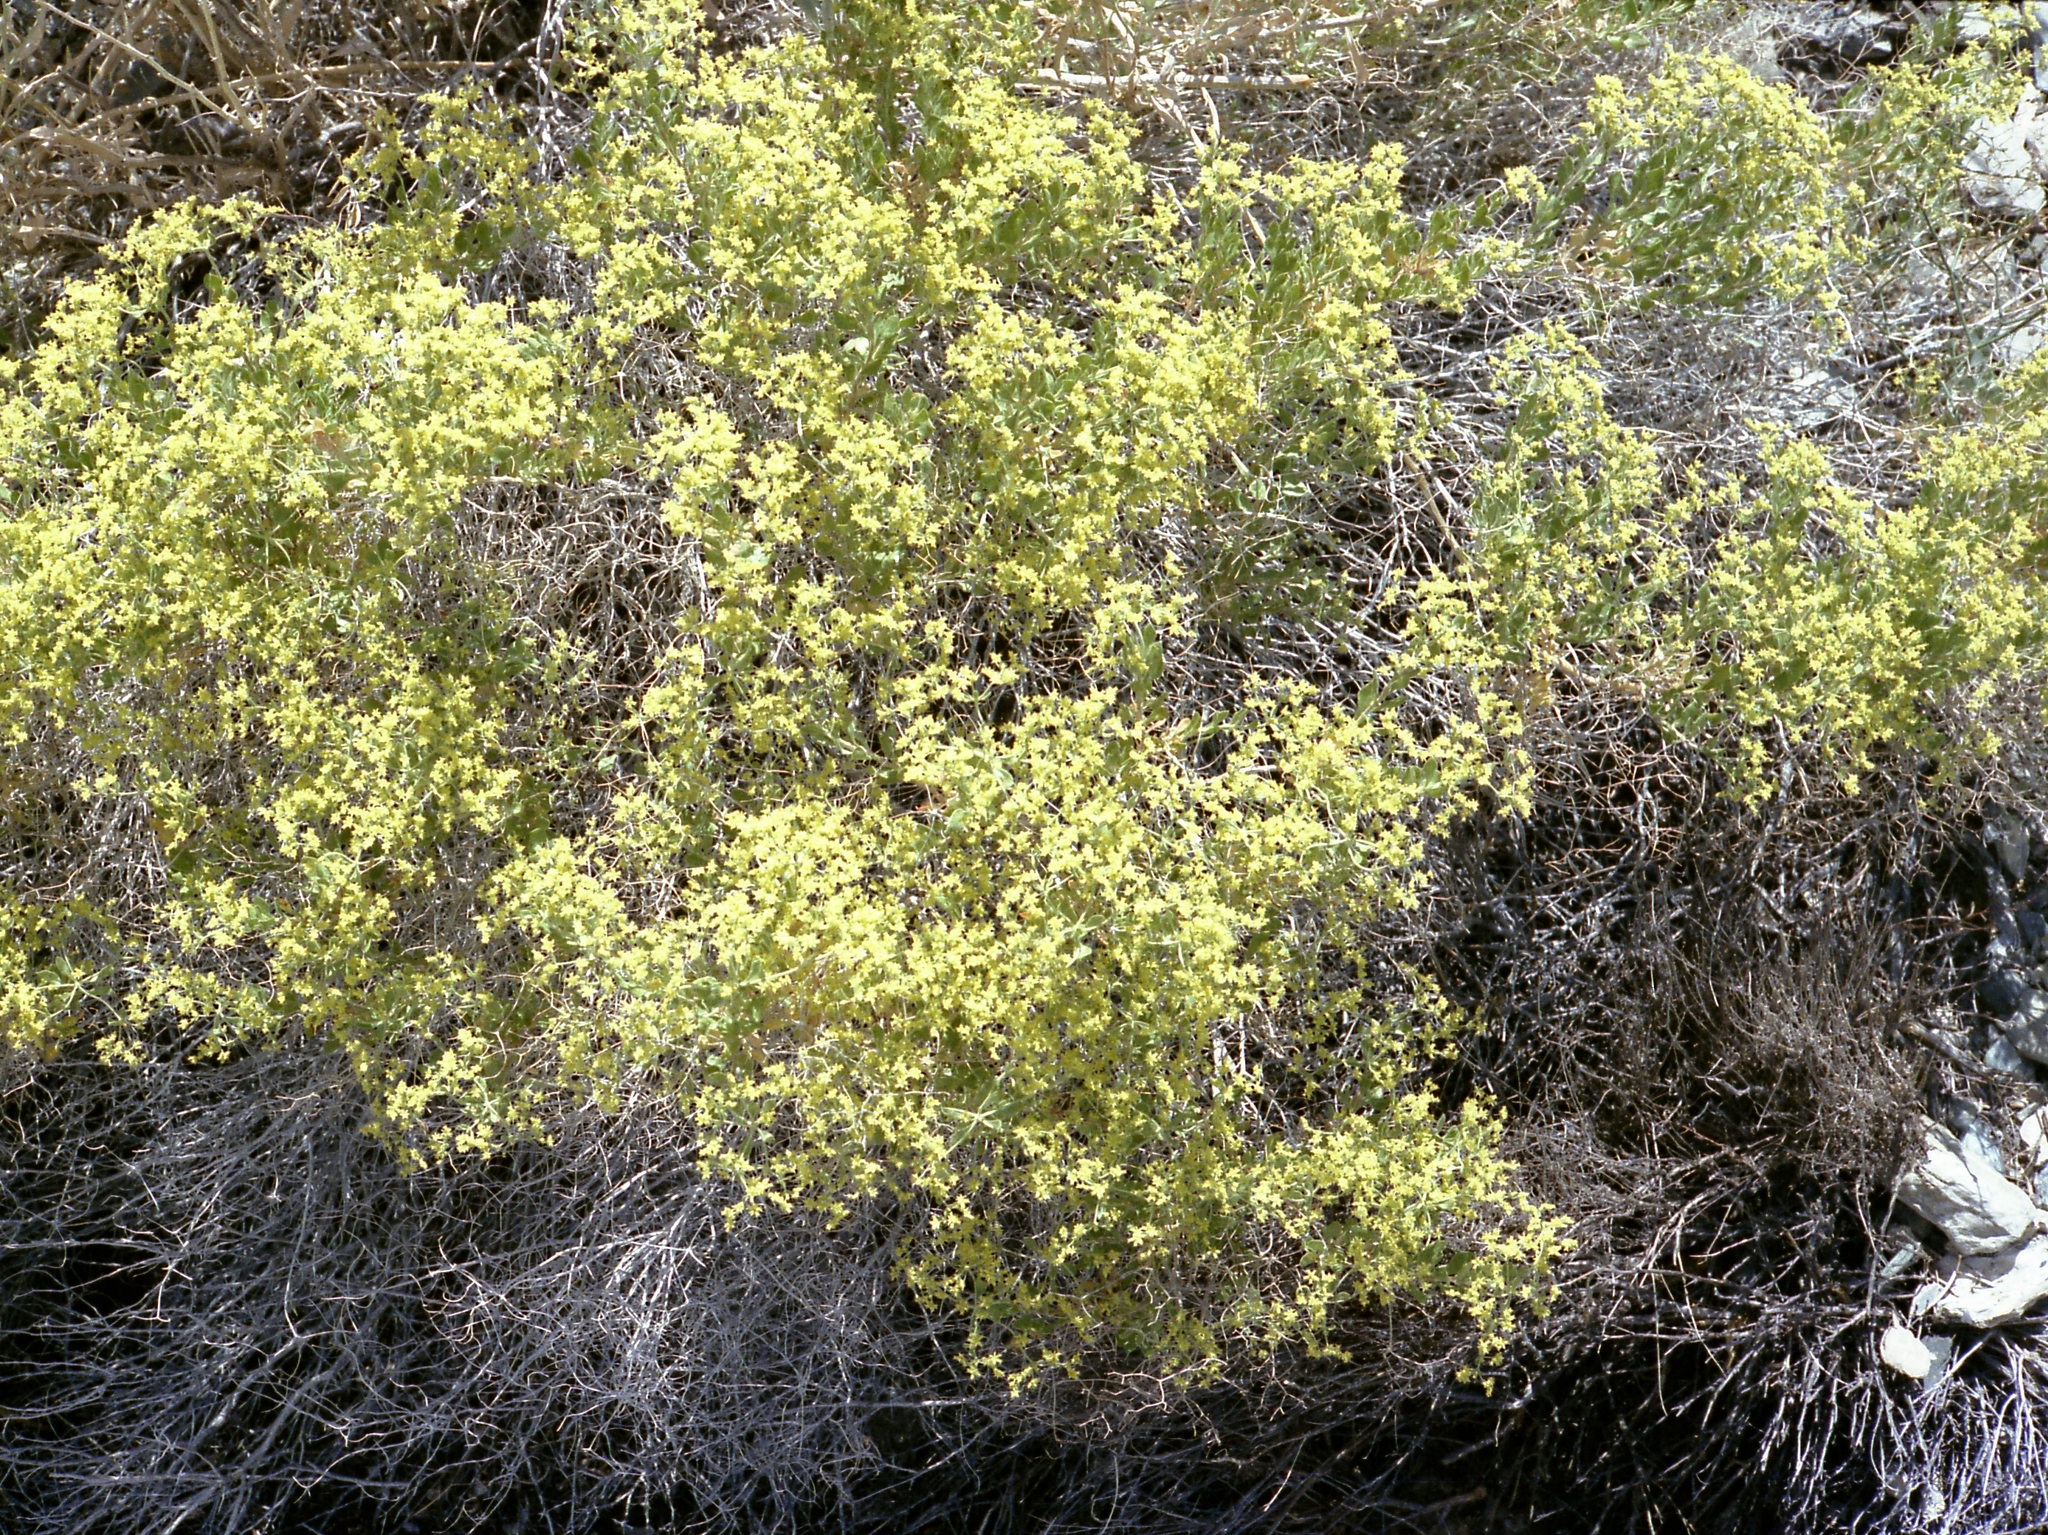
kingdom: Plantae
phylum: Tracheophyta
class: Magnoliopsida
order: Caryophyllales
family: Polygonaceae
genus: Dedeckera
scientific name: Dedeckera eurekensis
